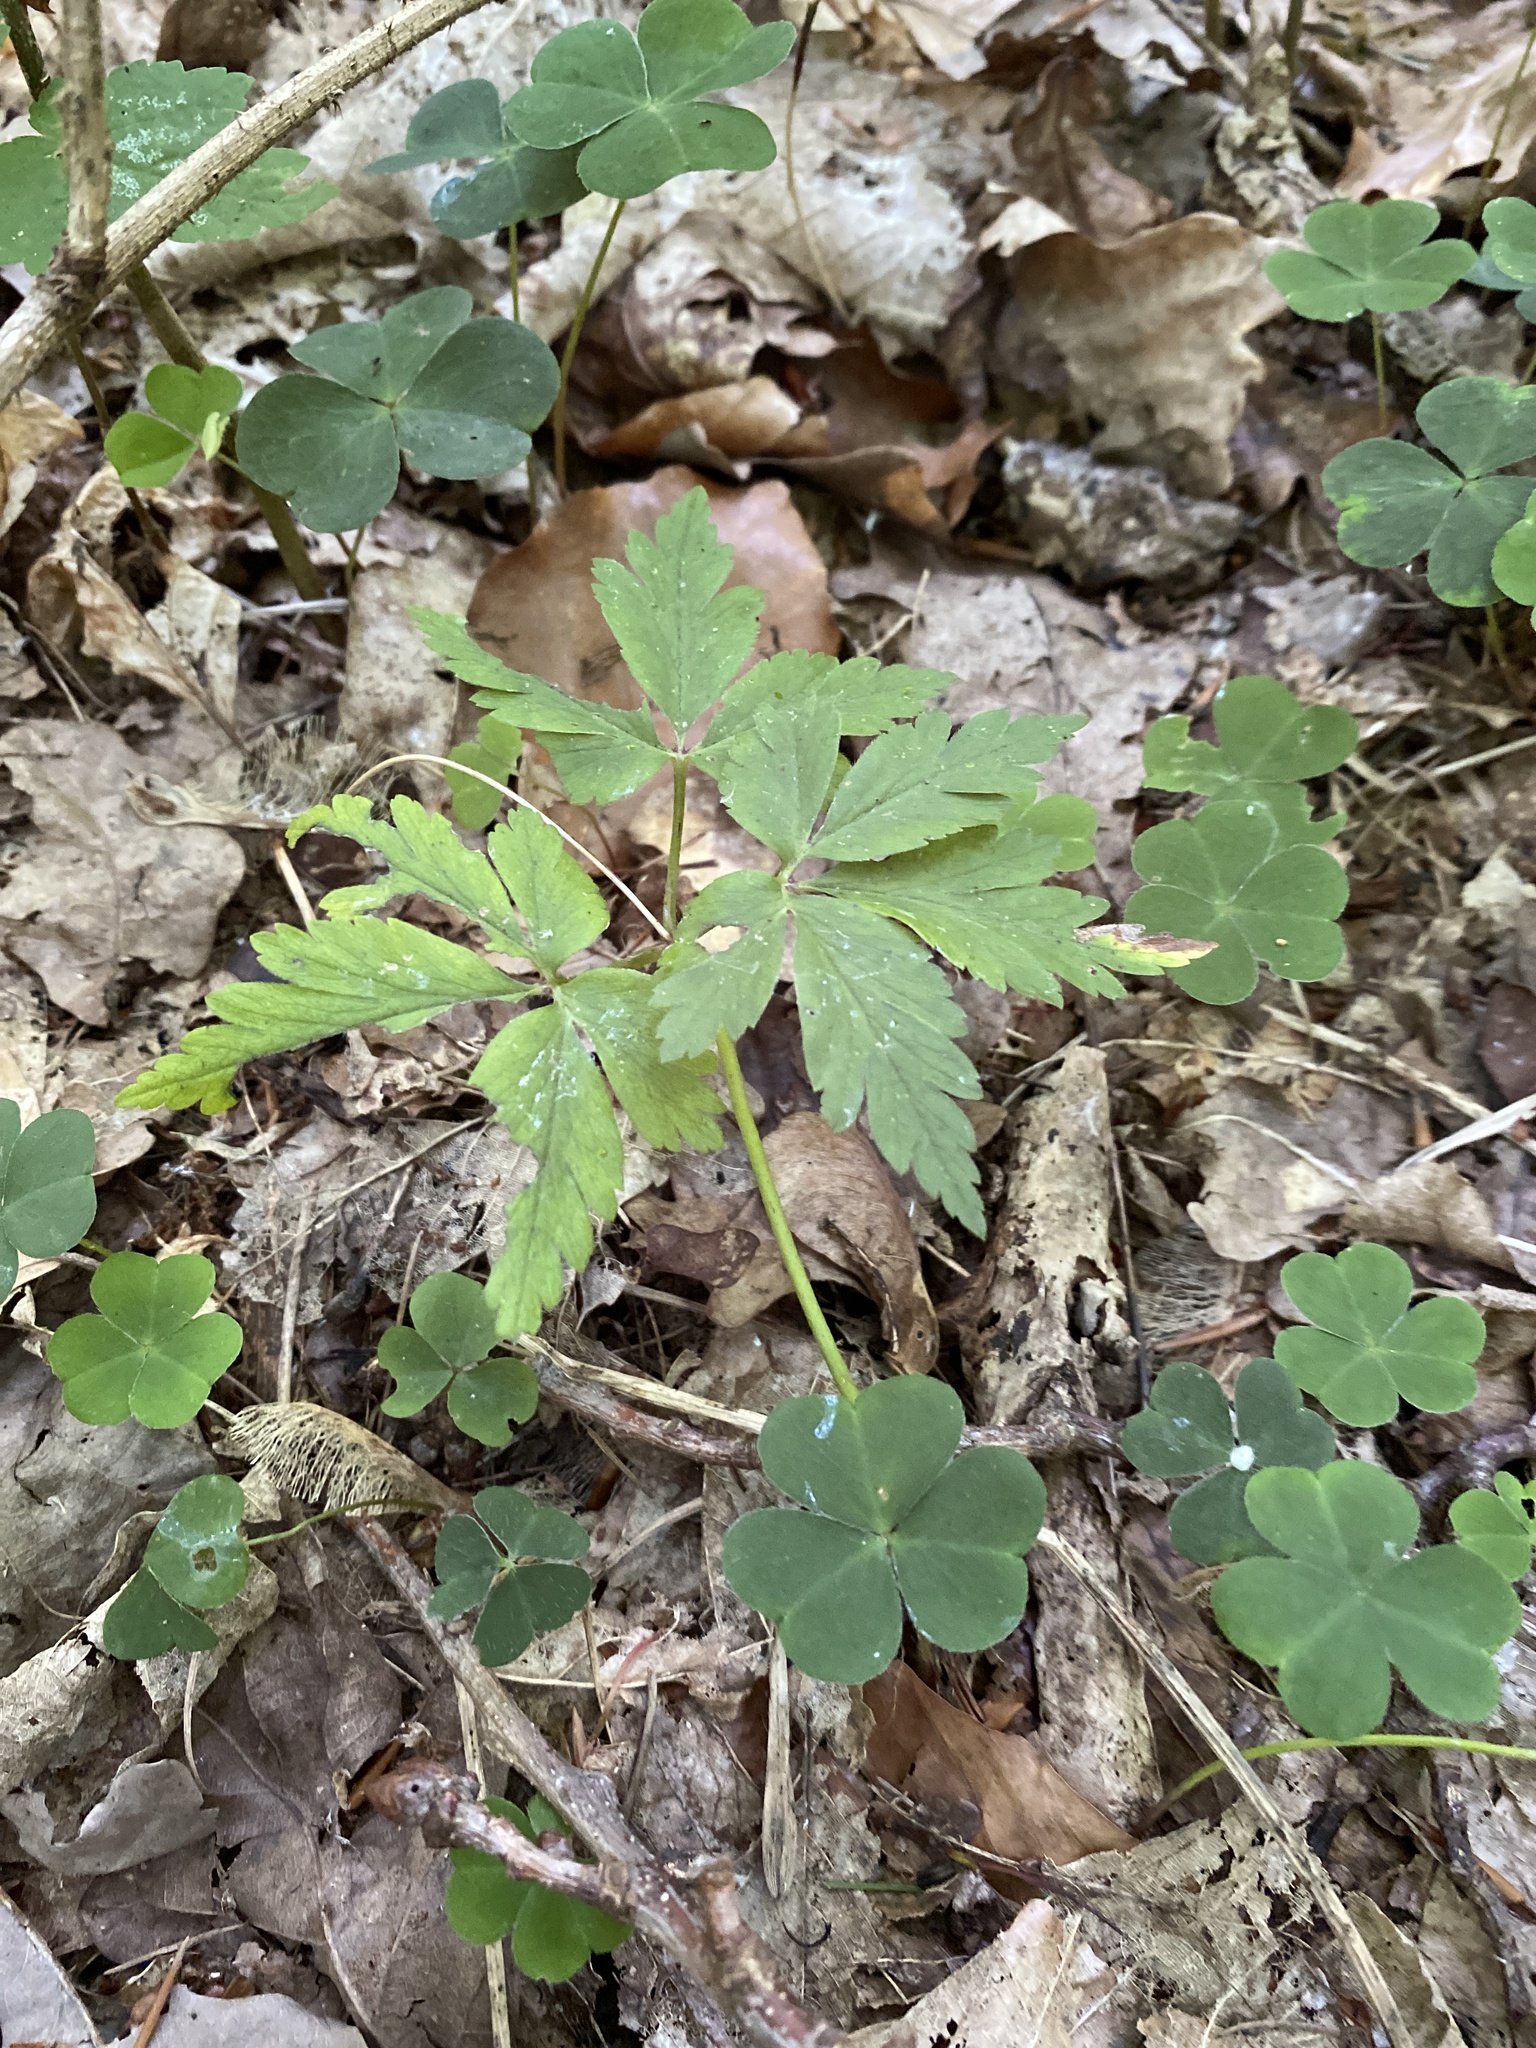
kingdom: Plantae
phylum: Tracheophyta
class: Magnoliopsida
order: Ranunculales
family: Ranunculaceae
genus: Anemone
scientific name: Anemone nemorosa
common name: Wood anemone
